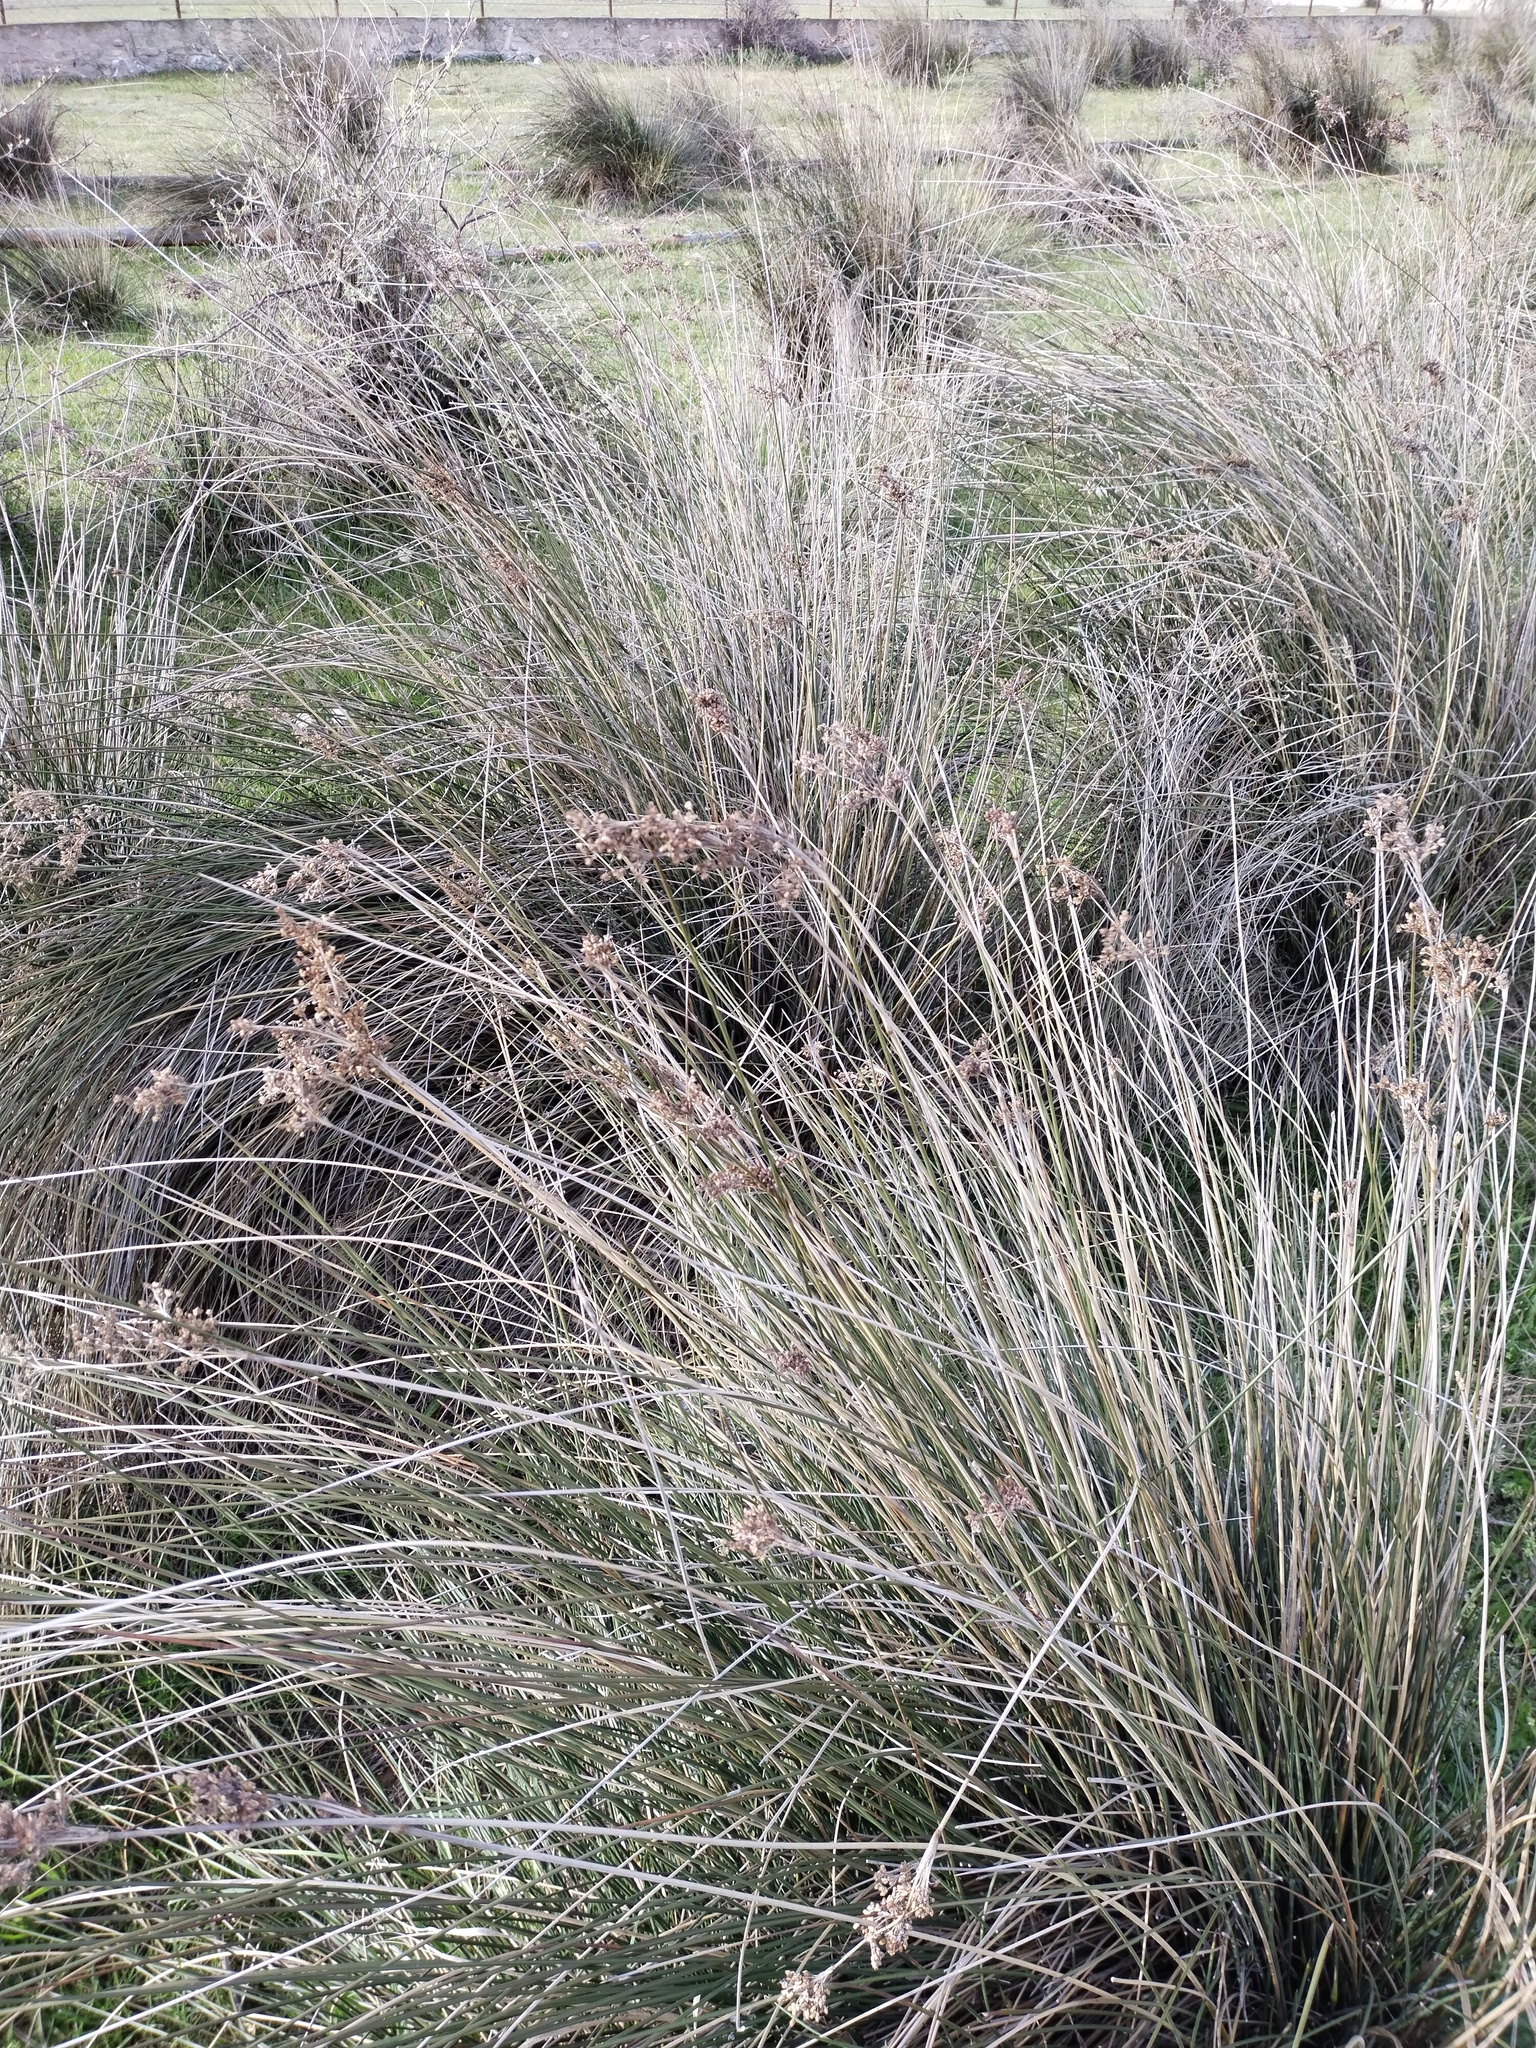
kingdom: Plantae
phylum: Tracheophyta
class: Liliopsida
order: Poales
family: Juncaceae
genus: Juncus
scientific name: Juncus maritimus
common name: Sea rush
